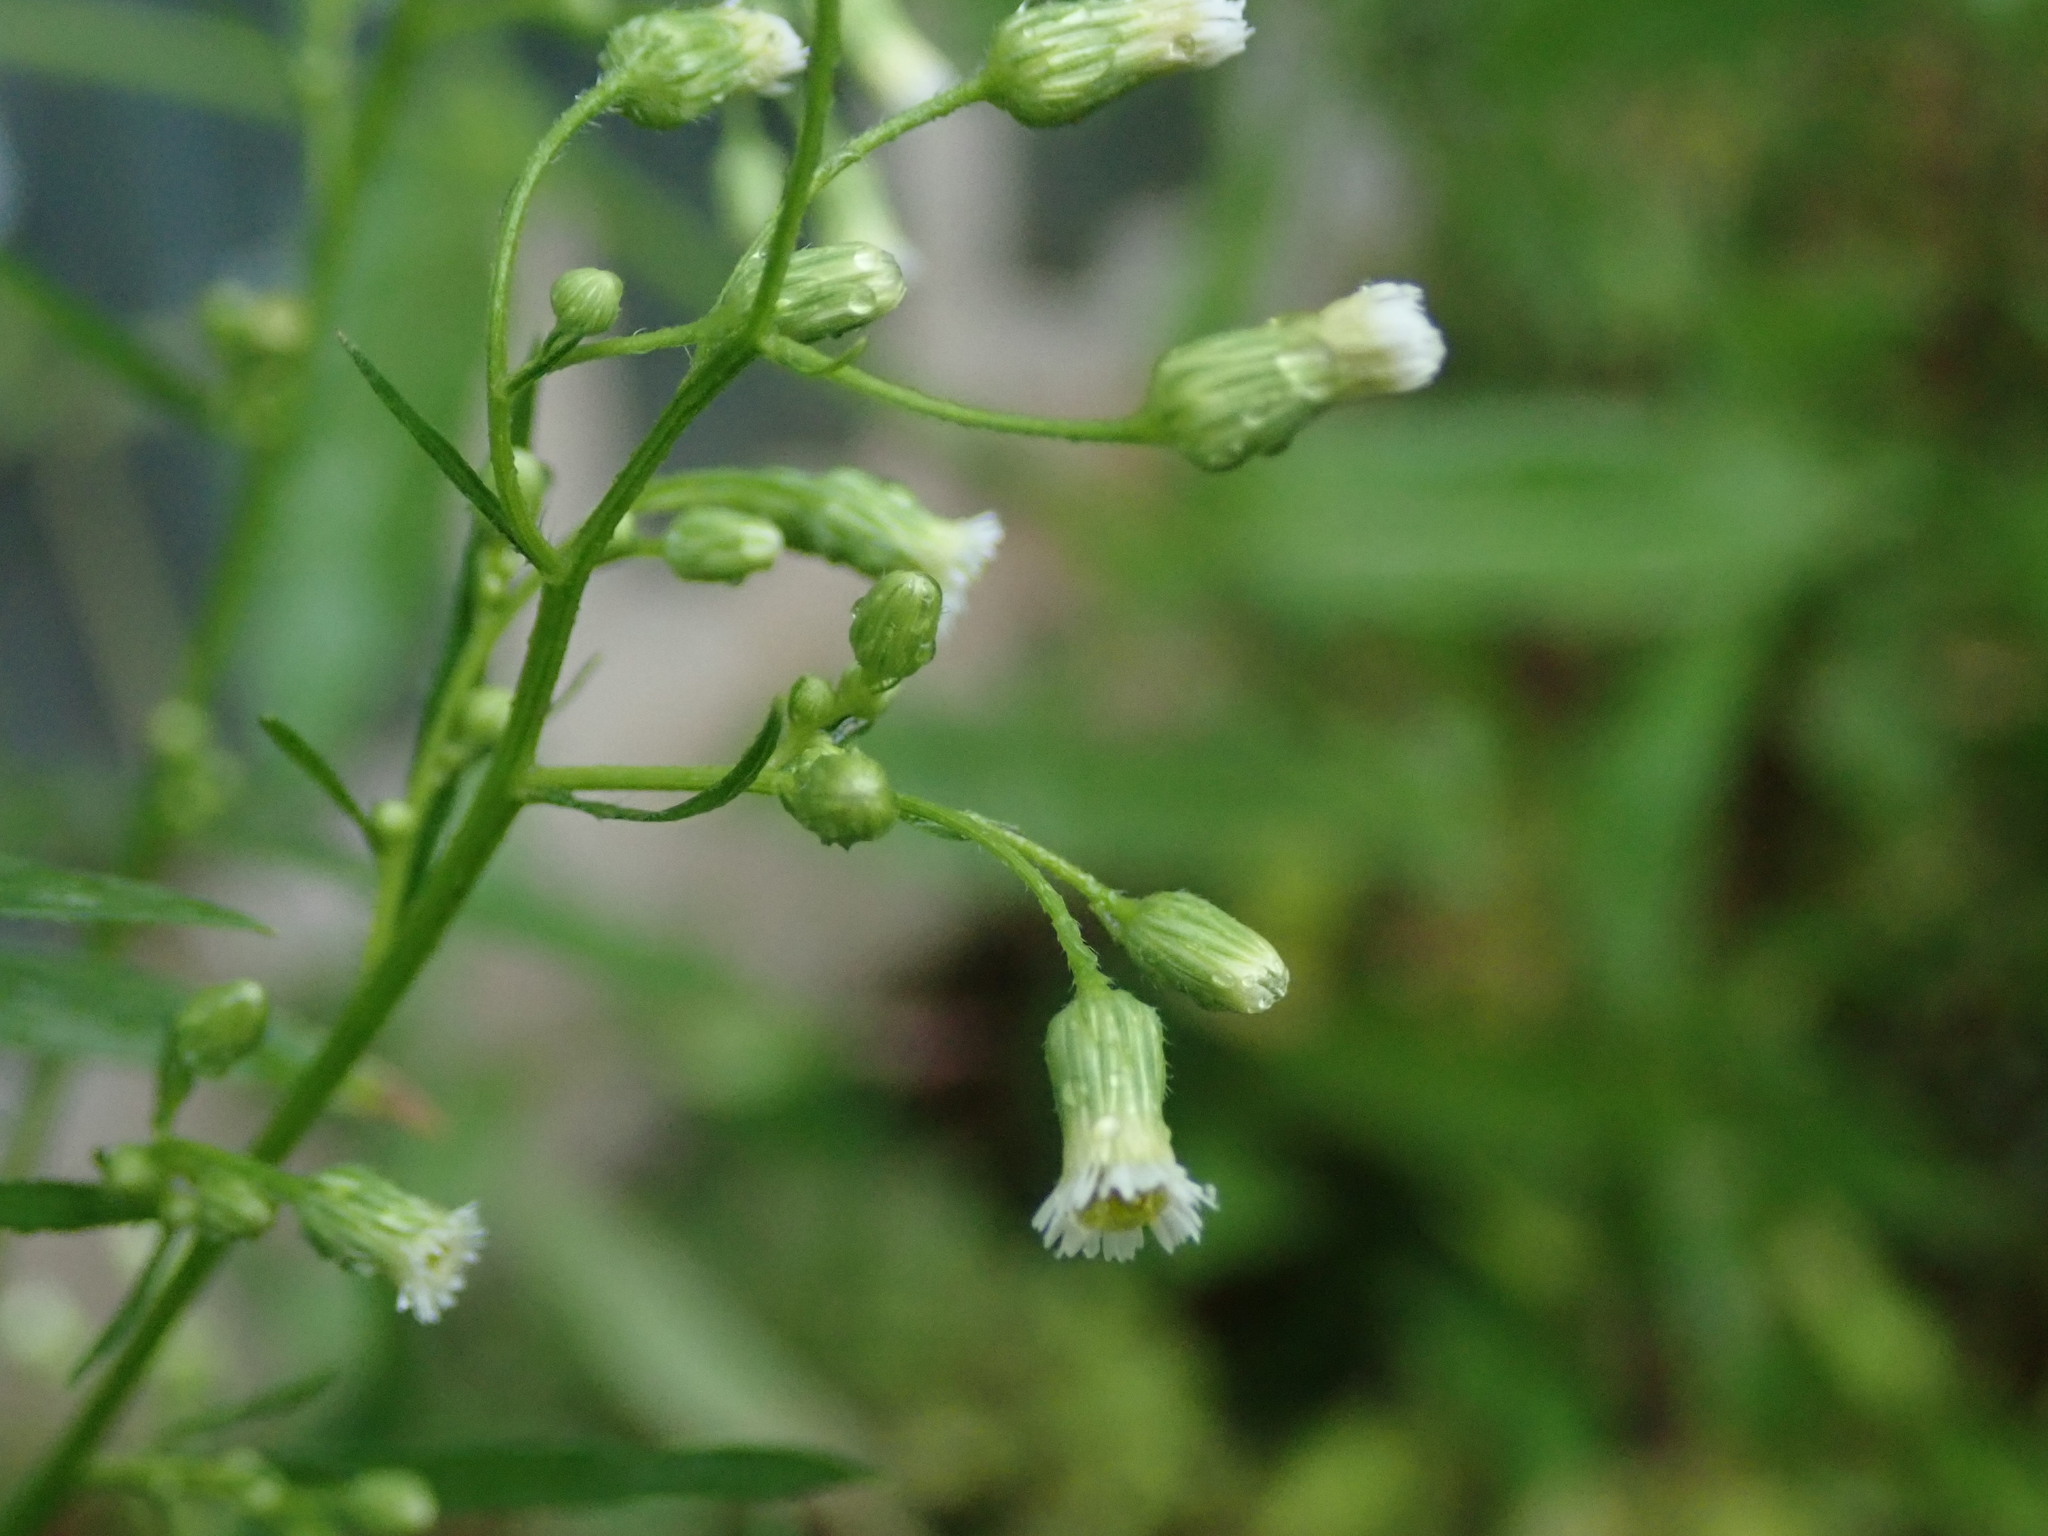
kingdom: Plantae
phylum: Tracheophyta
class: Magnoliopsida
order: Asterales
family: Asteraceae
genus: Erigeron
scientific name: Erigeron canadensis
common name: Canadian fleabane
